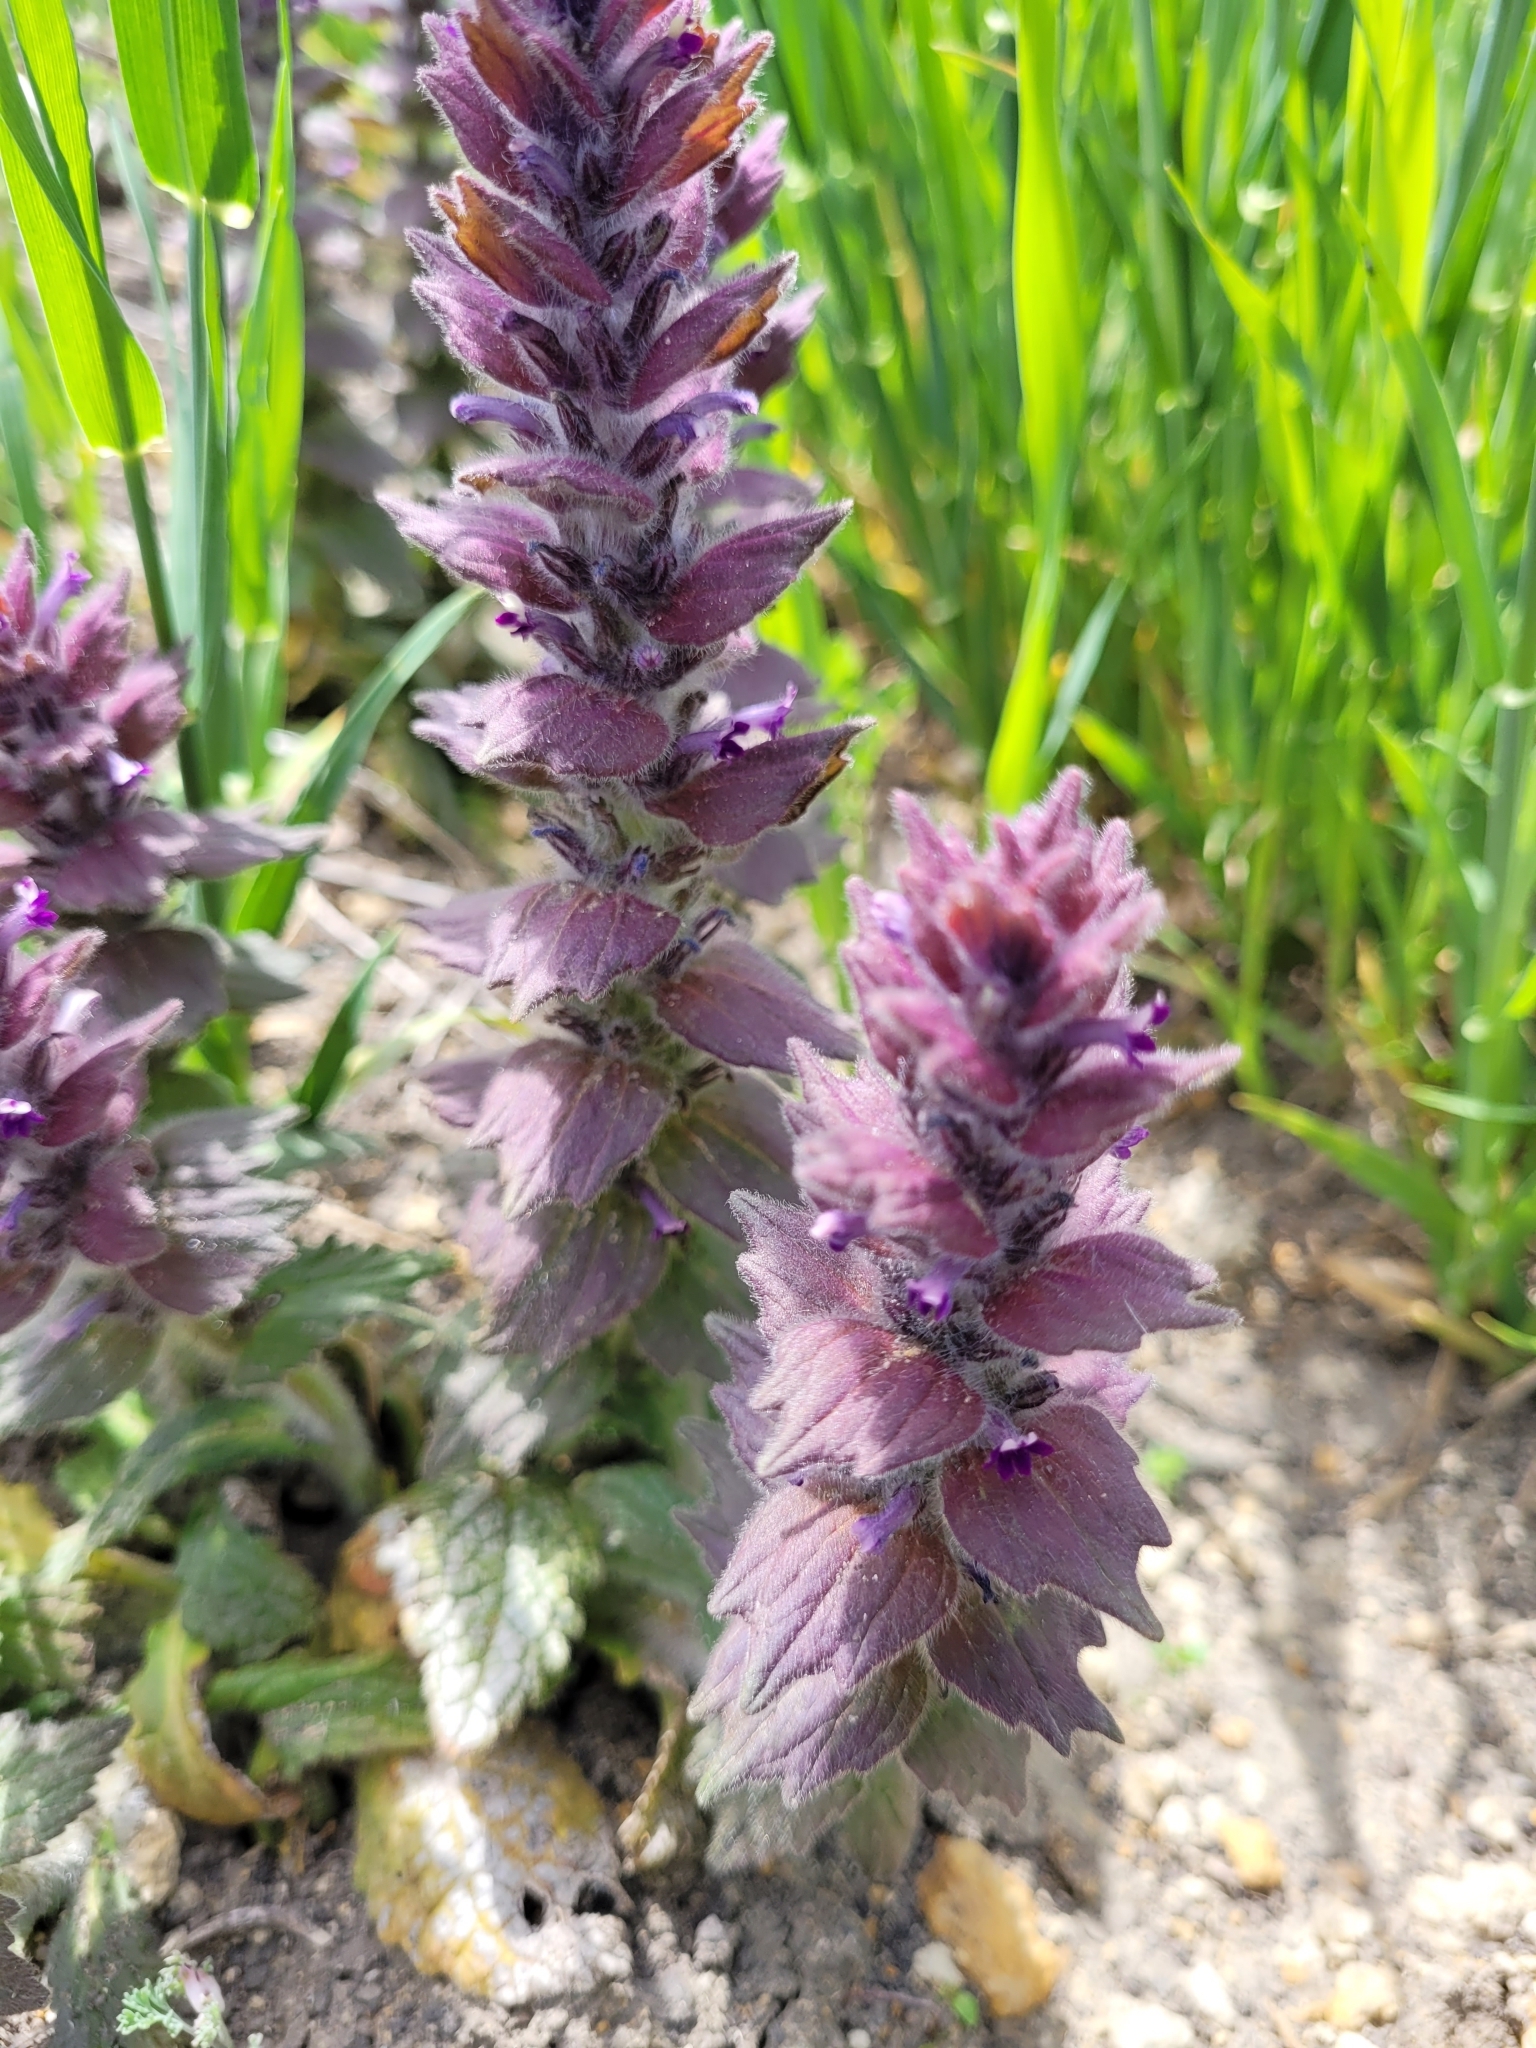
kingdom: Plantae
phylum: Tracheophyta
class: Magnoliopsida
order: Lamiales
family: Lamiaceae
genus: Ajuga
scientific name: Ajuga orientalis
